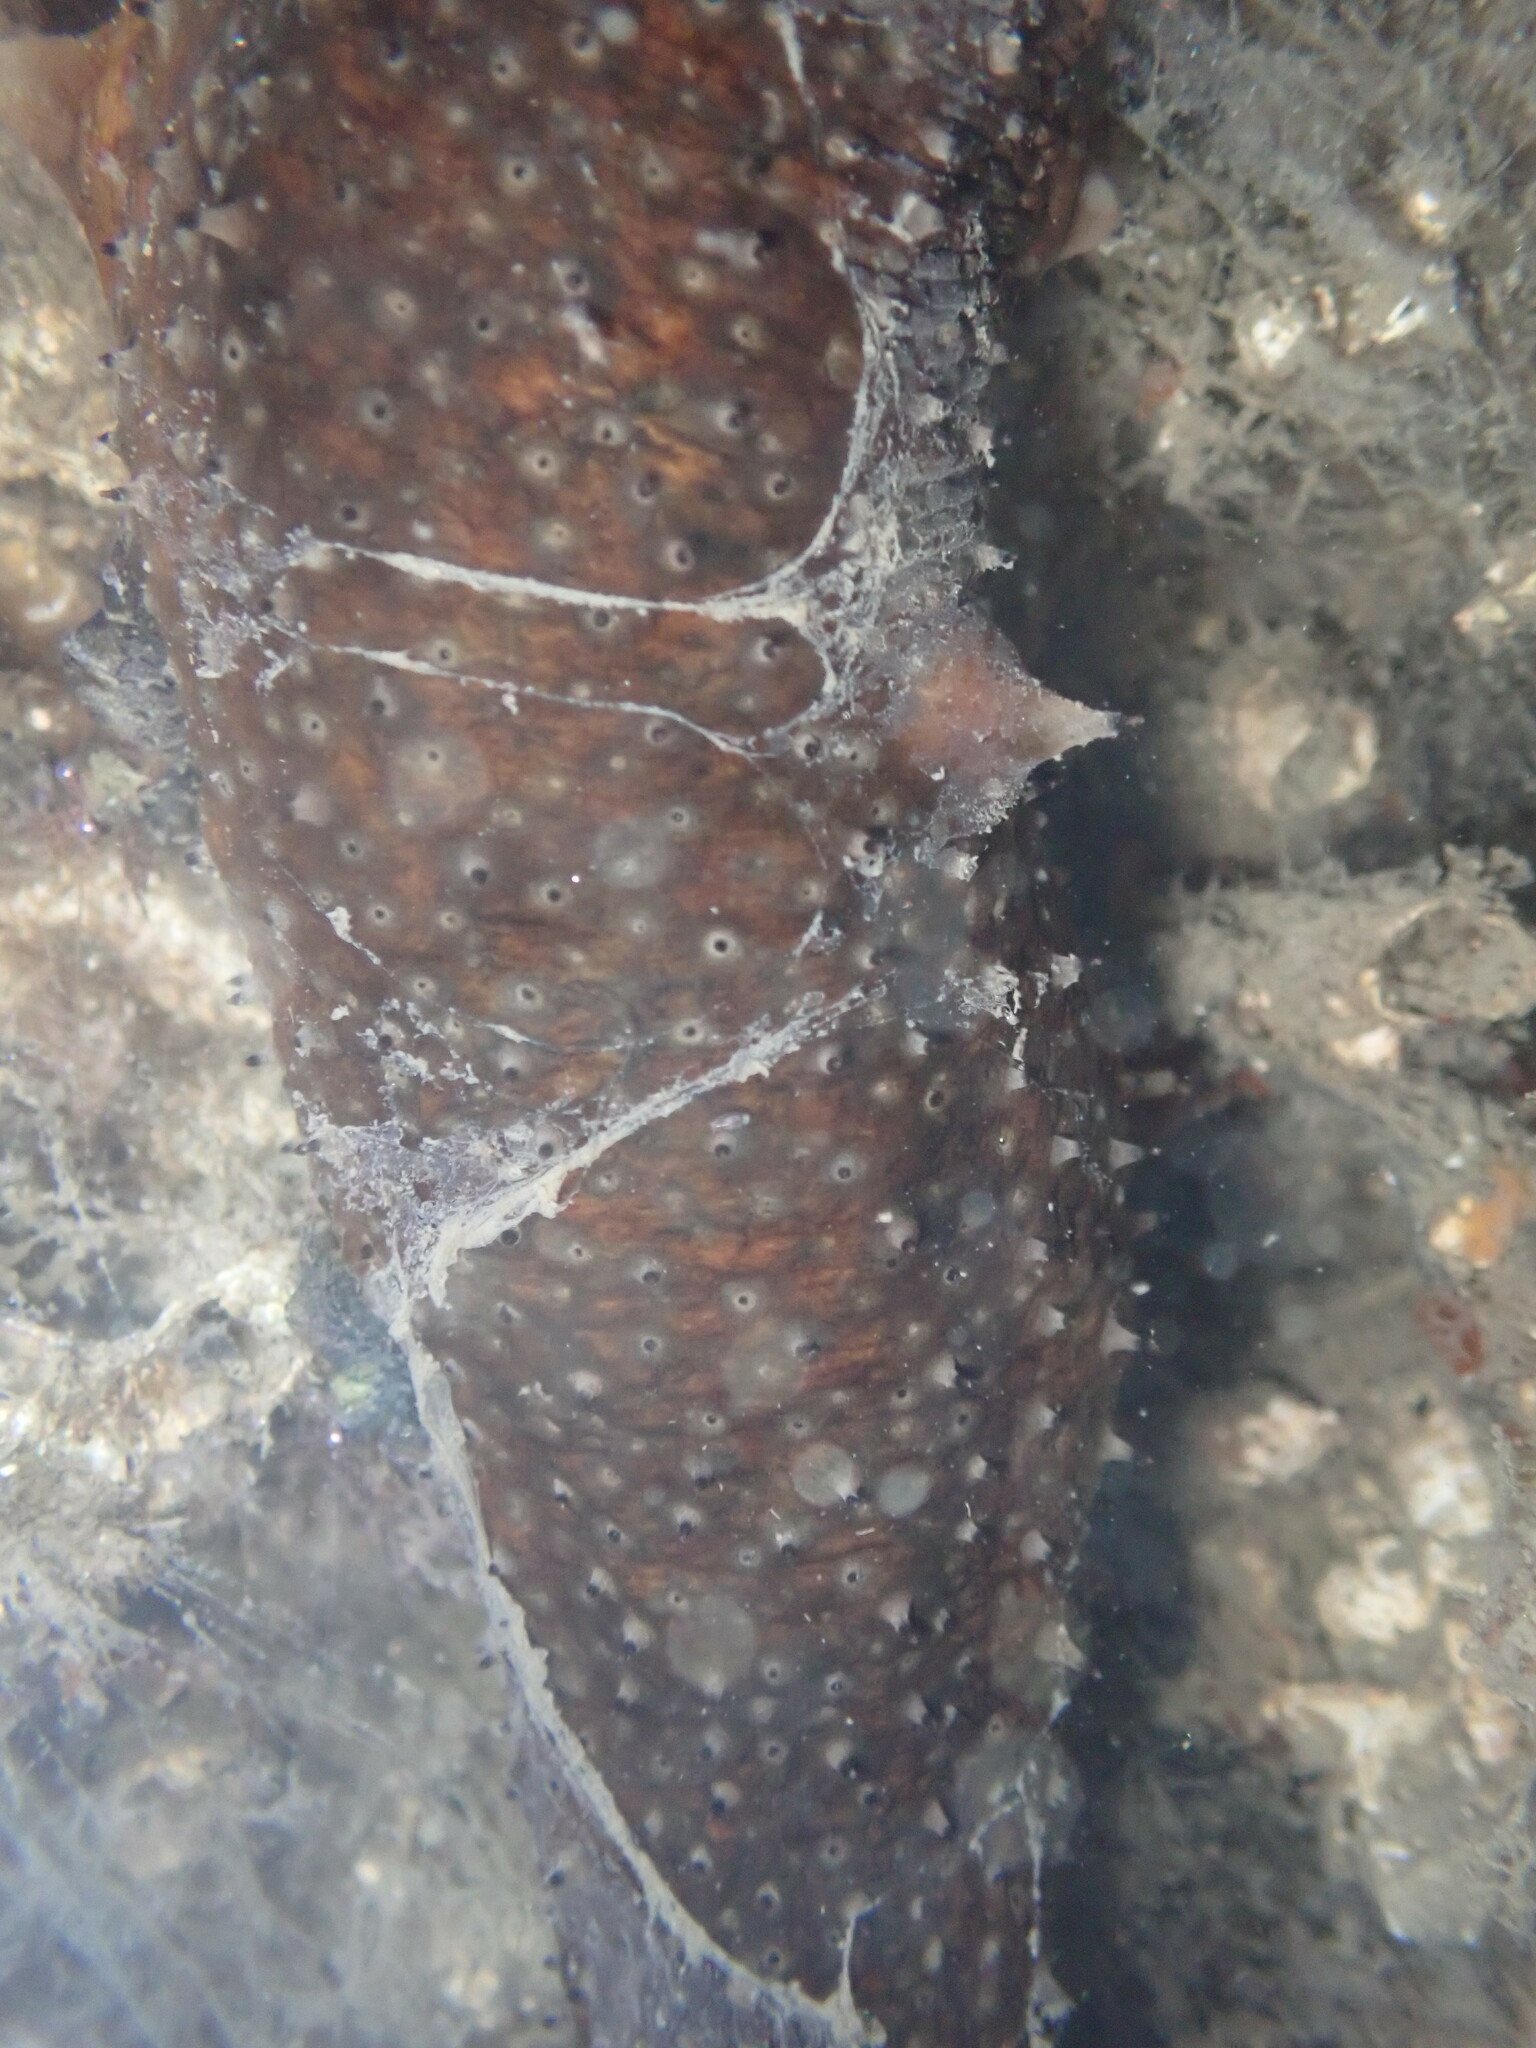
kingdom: Animalia
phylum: Echinodermata
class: Holothuroidea
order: Synallactida
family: Stichopodidae
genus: Apostichopus
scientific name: Apostichopus parvimensis
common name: Warty sea cucumber
